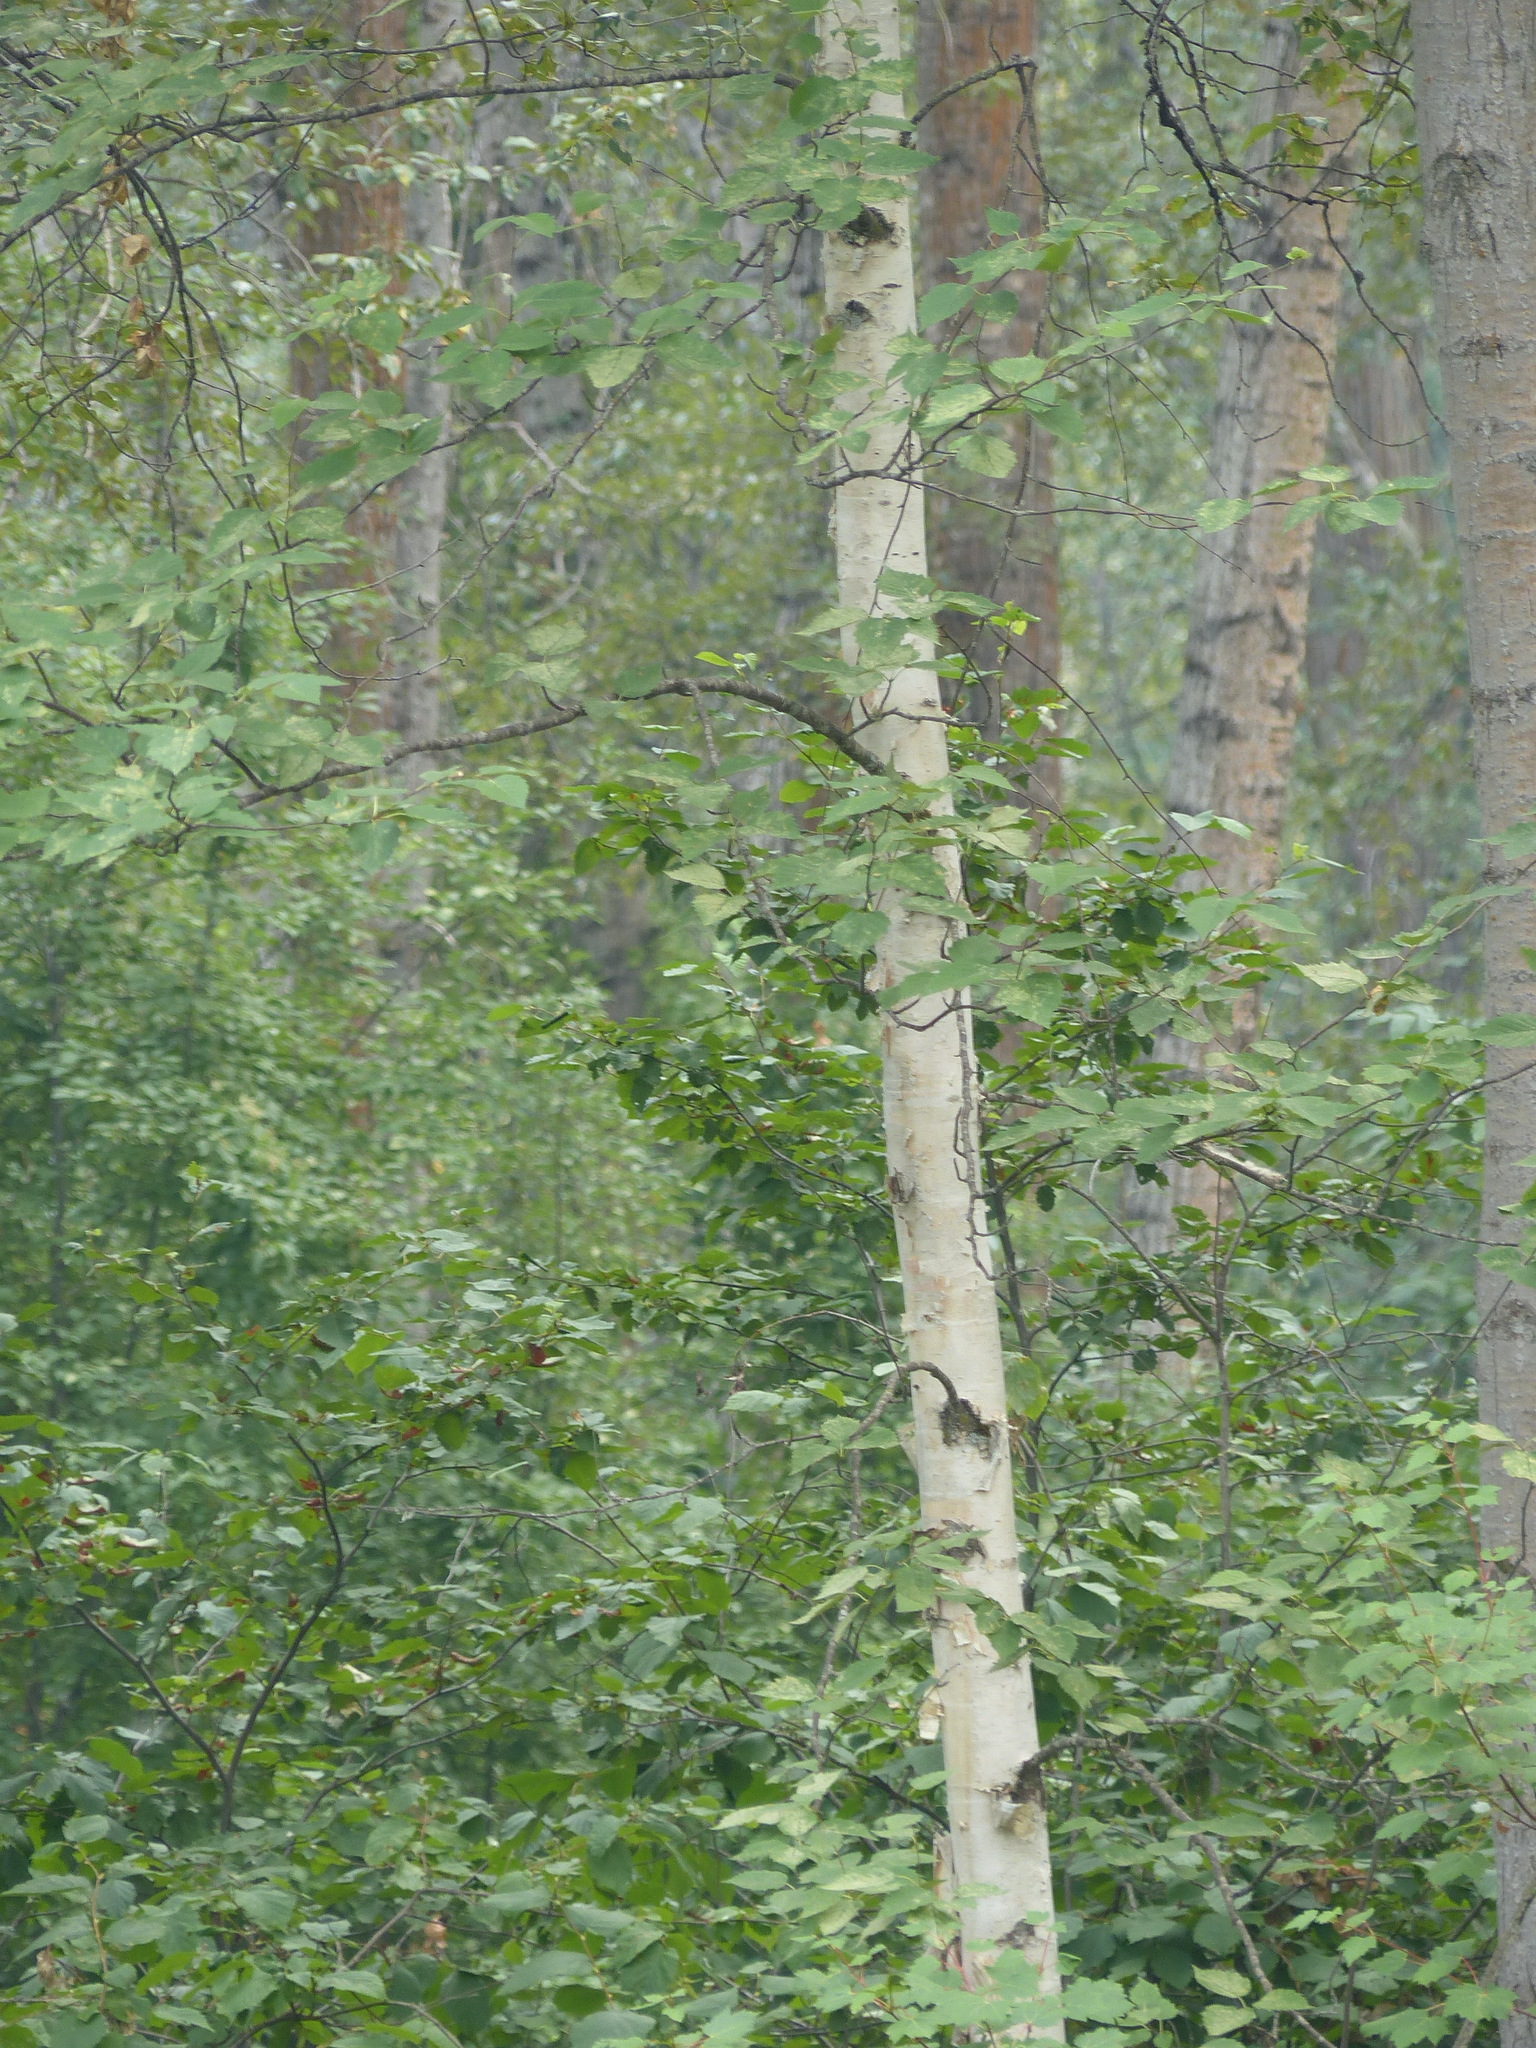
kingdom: Plantae
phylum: Tracheophyta
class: Magnoliopsida
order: Fagales
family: Betulaceae
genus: Betula
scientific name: Betula papyrifera
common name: Paper birch
